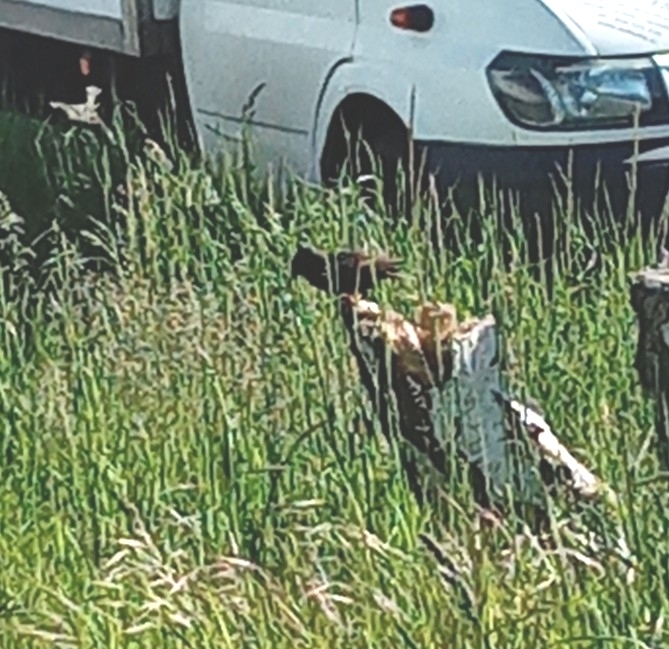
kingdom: Animalia
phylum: Chordata
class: Aves
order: Passeriformes
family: Sturnidae
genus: Sturnus
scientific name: Sturnus vulgaris
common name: Common starling
